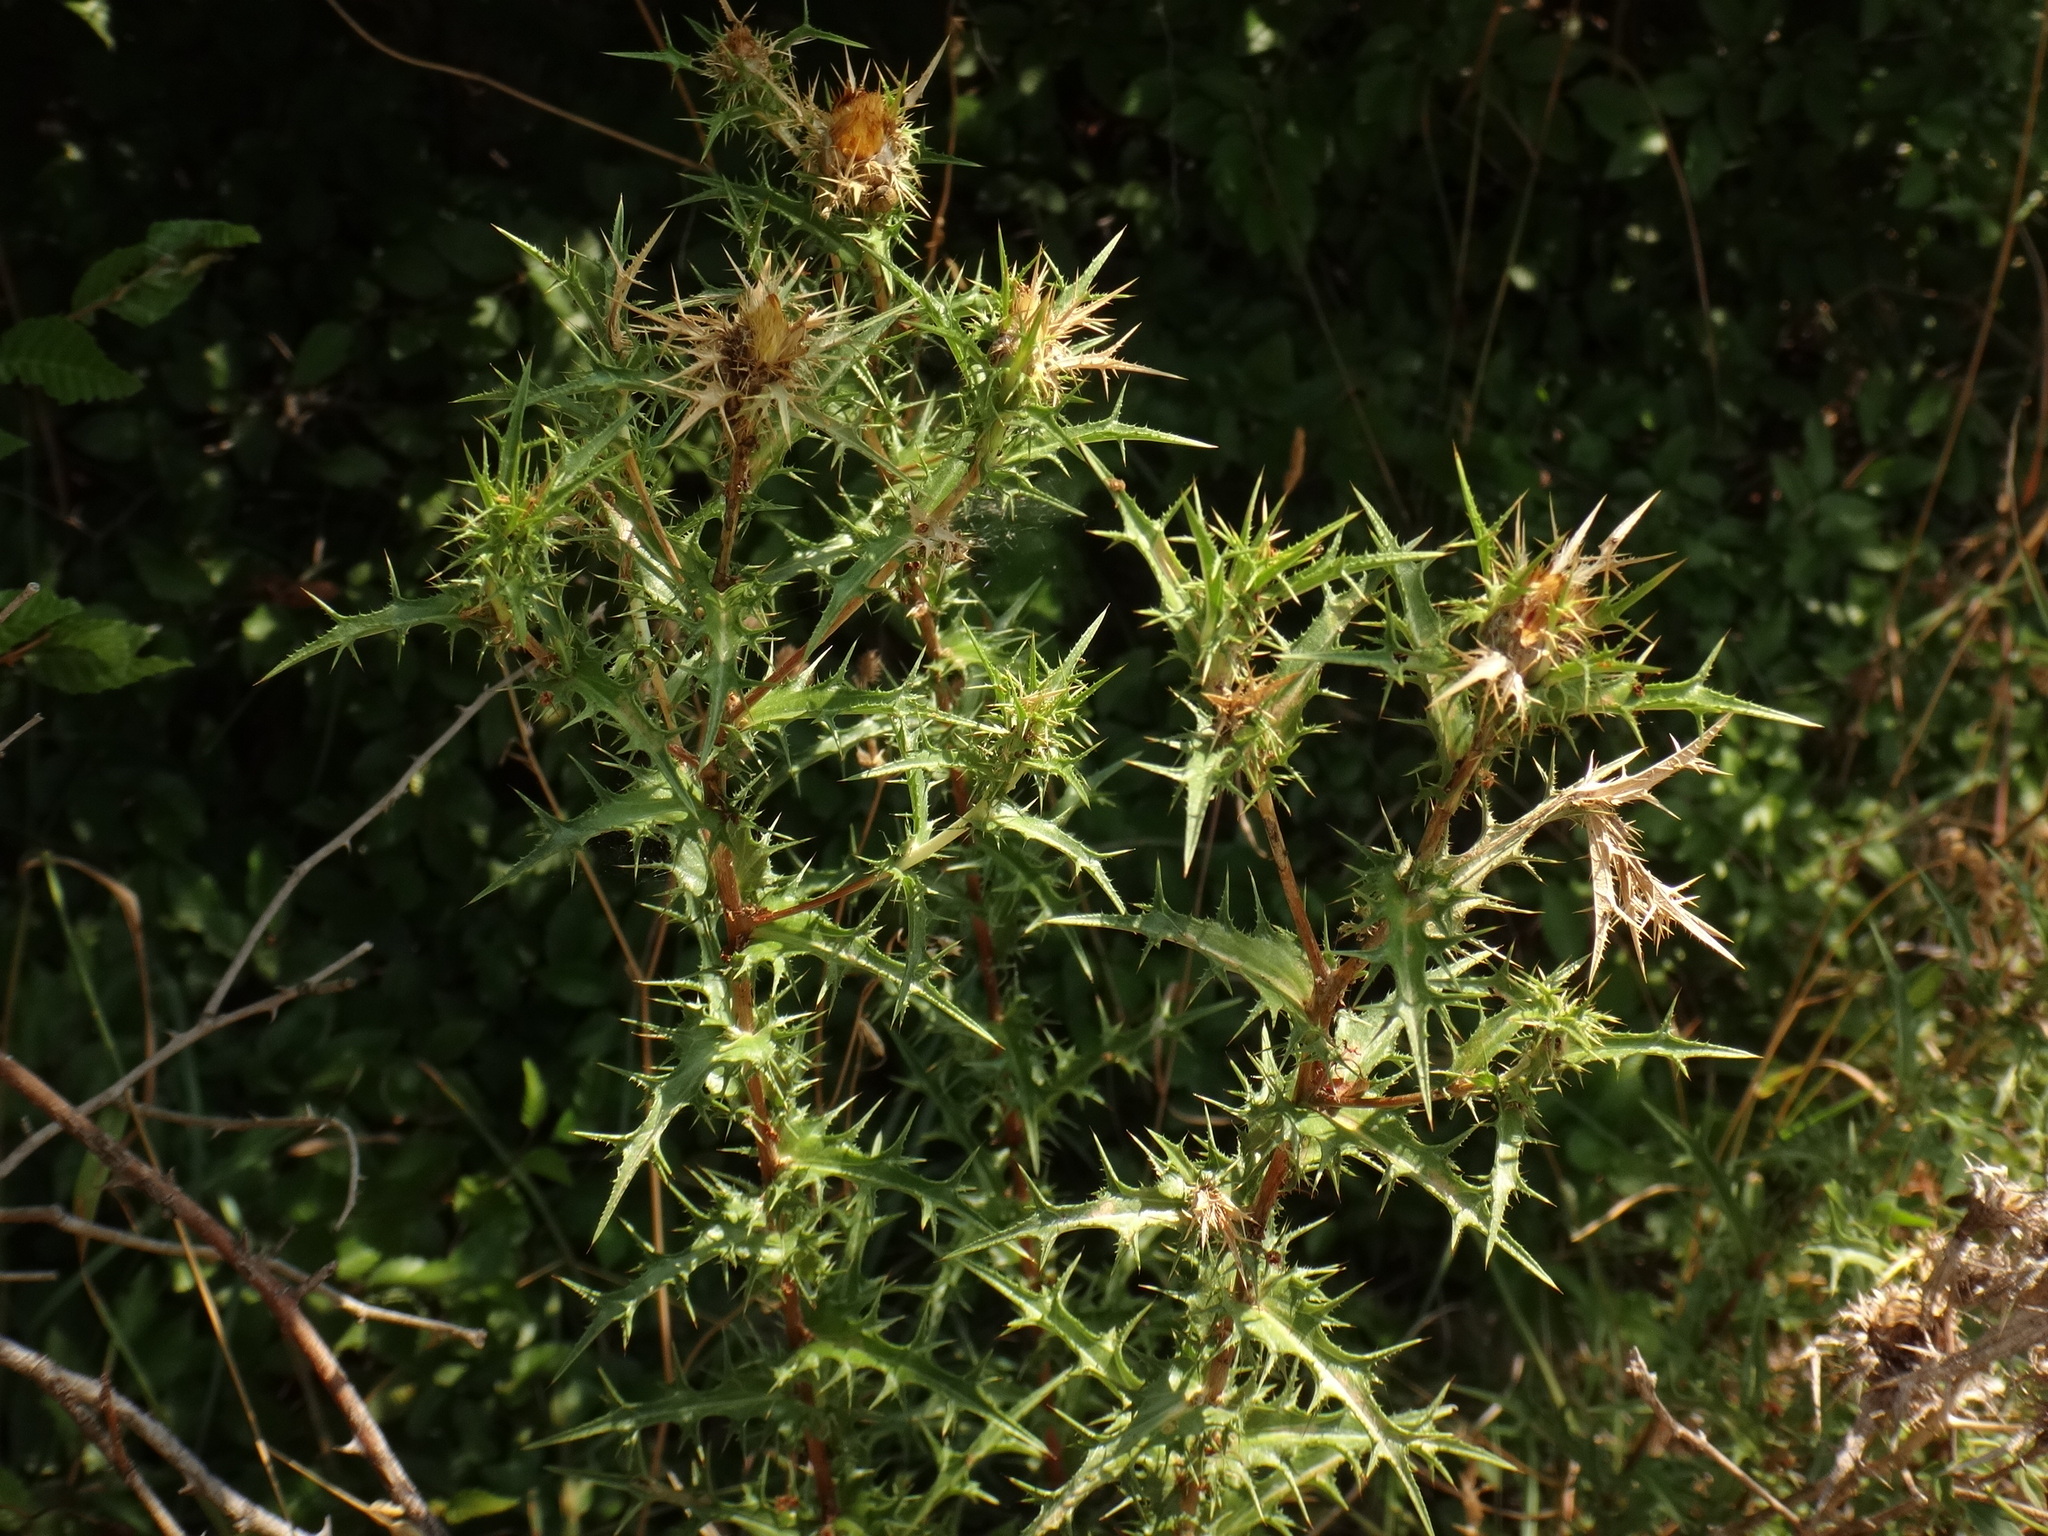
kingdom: Plantae
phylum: Tracheophyta
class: Magnoliopsida
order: Asterales
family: Asteraceae
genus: Carlina
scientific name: Carlina corymbosa
